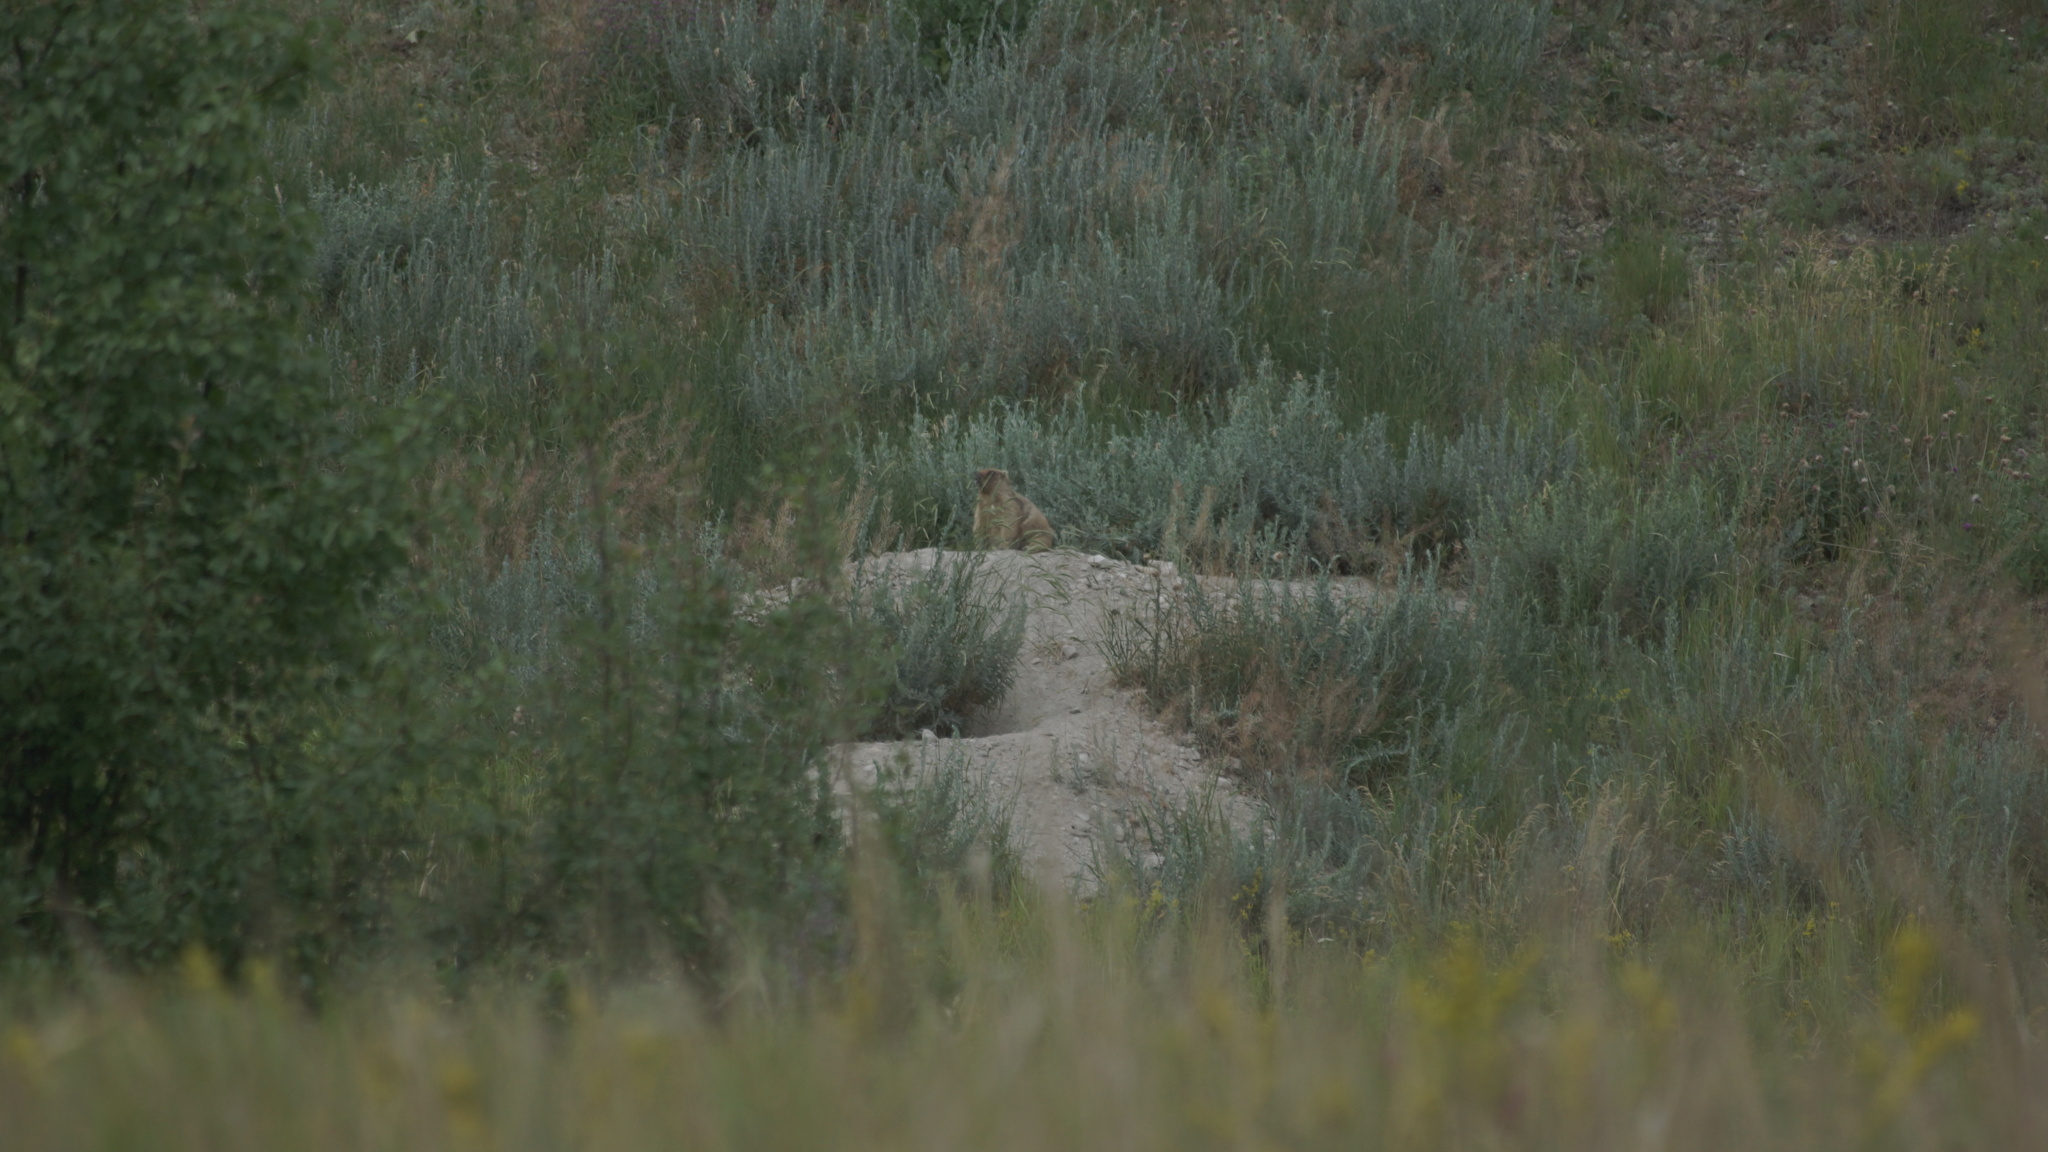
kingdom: Animalia
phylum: Chordata
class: Mammalia
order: Rodentia
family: Sciuridae
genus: Marmota
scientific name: Marmota bobak
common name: Bobak marmot
